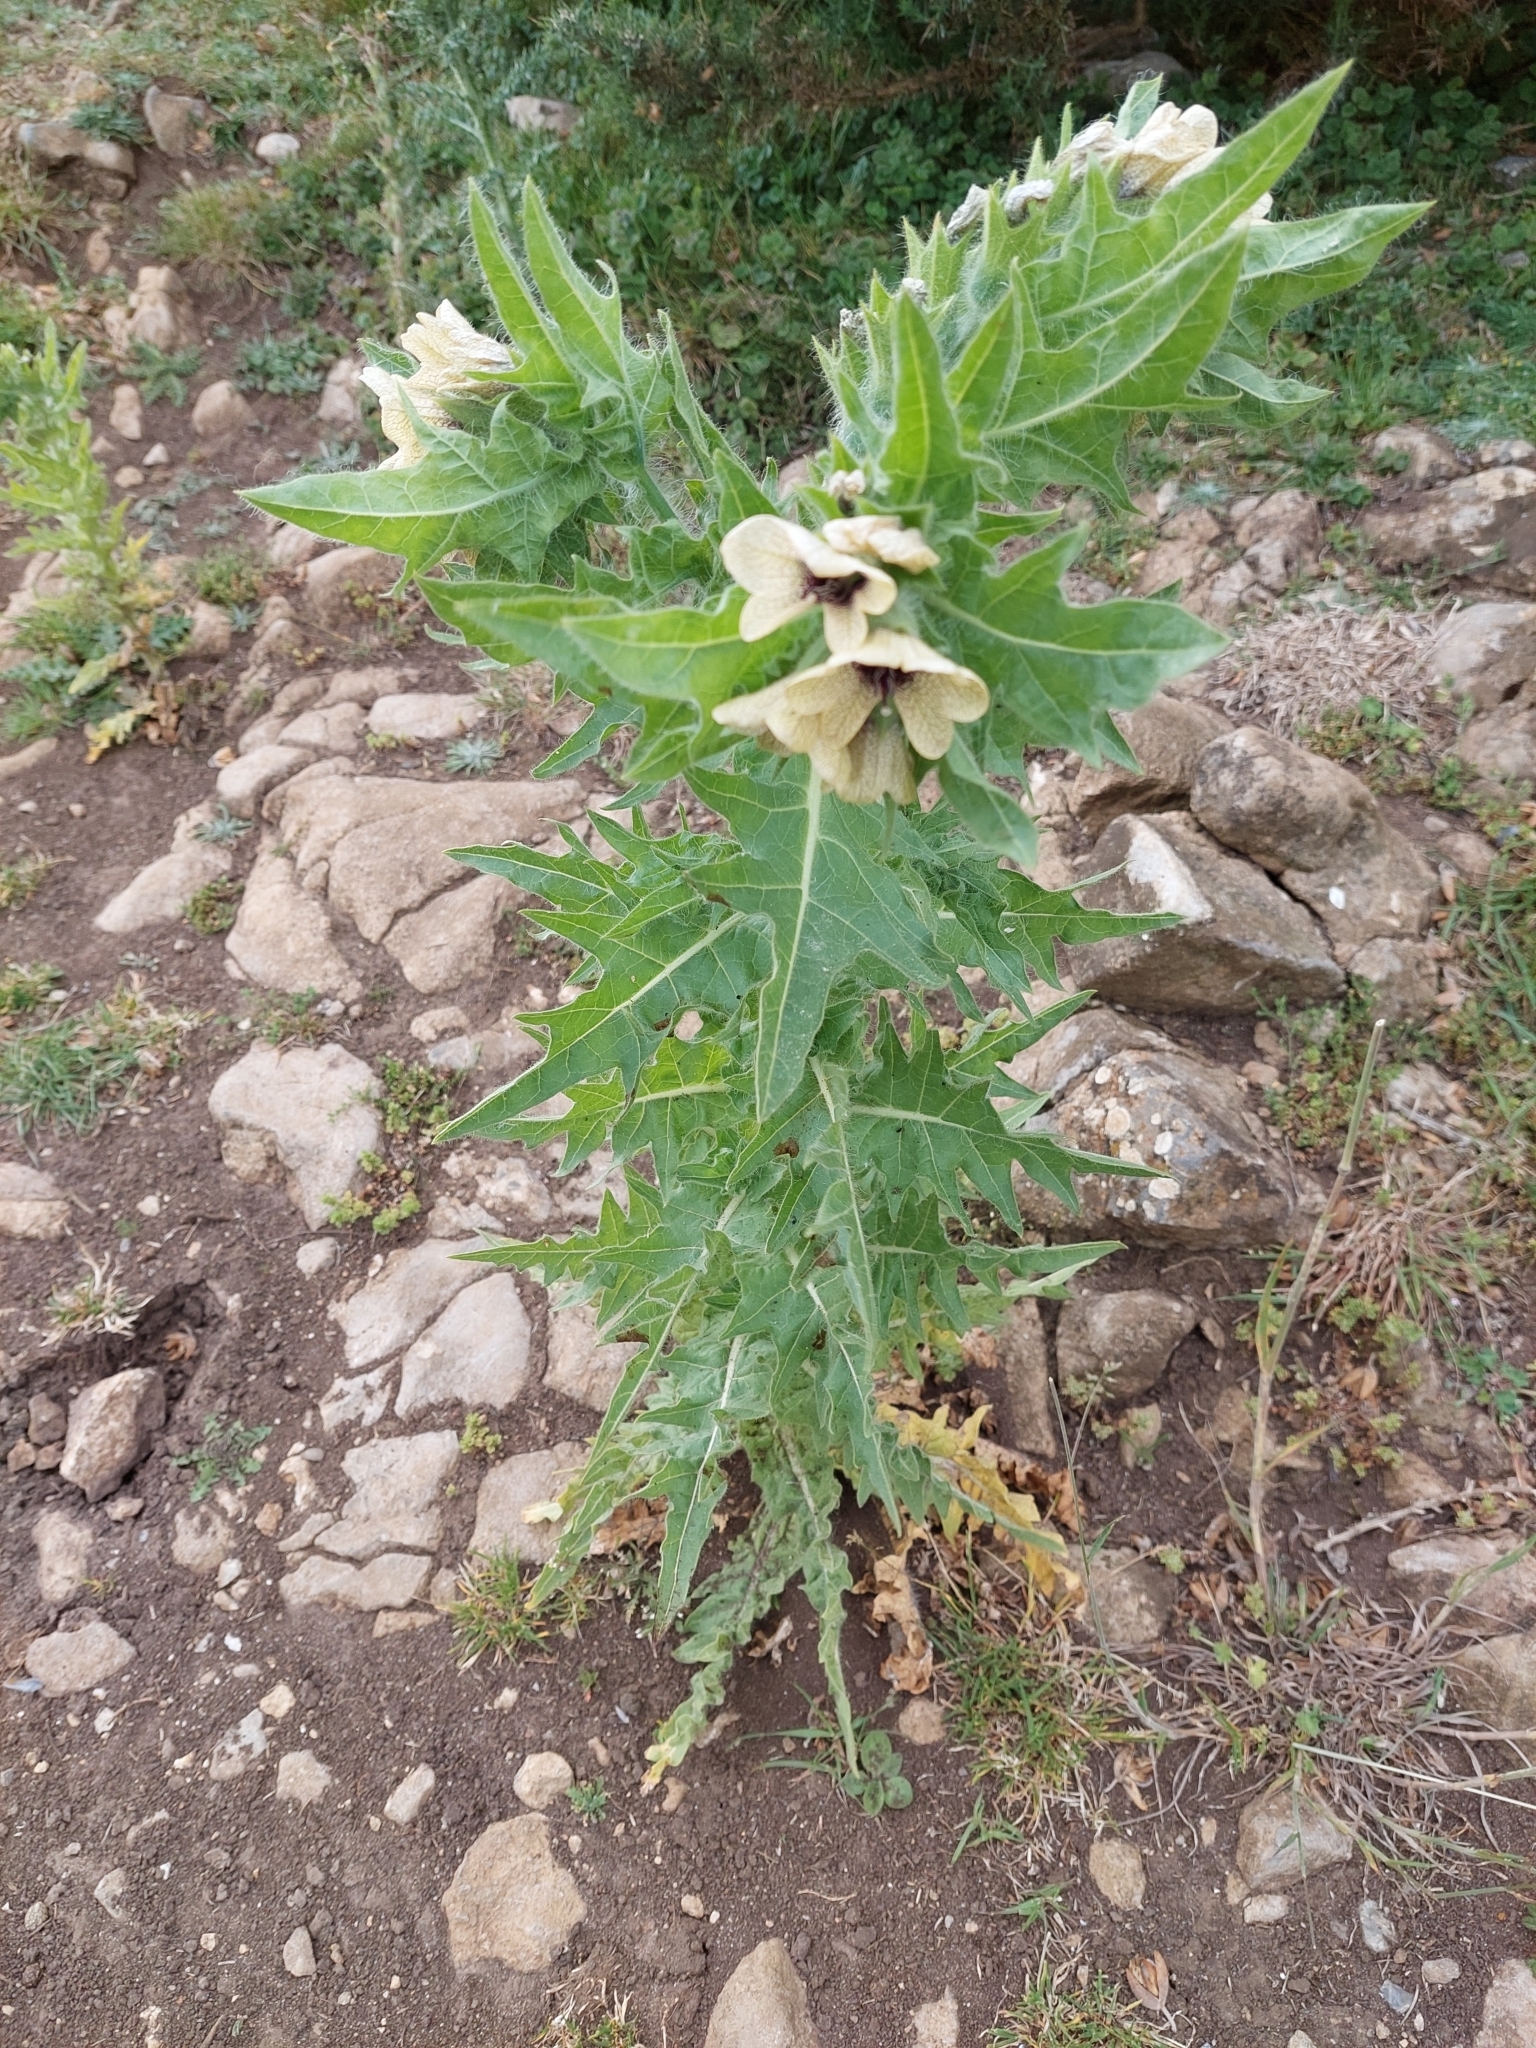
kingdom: Plantae
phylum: Tracheophyta
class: Magnoliopsida
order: Solanales
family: Solanaceae
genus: Hyoscyamus
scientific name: Hyoscyamus niger
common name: Henbane
